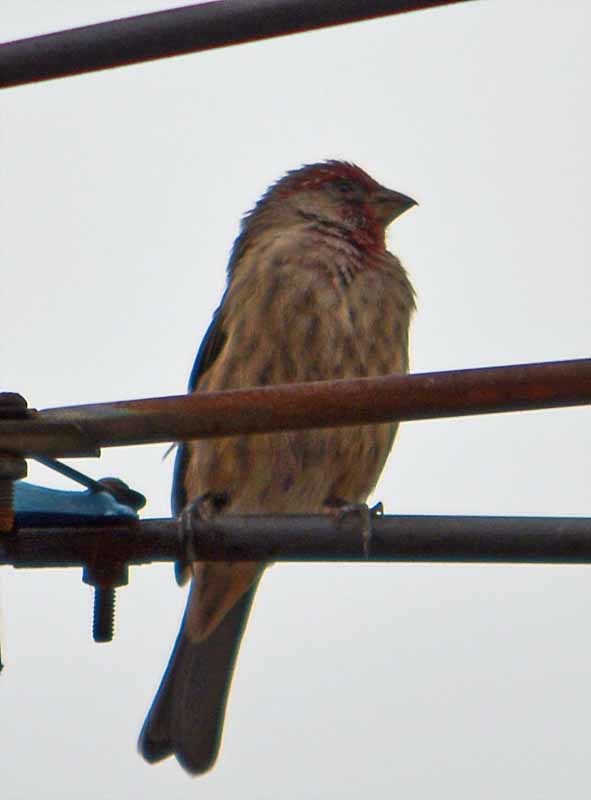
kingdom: Animalia
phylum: Chordata
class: Aves
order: Passeriformes
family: Fringillidae
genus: Haemorhous
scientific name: Haemorhous mexicanus
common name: House finch
